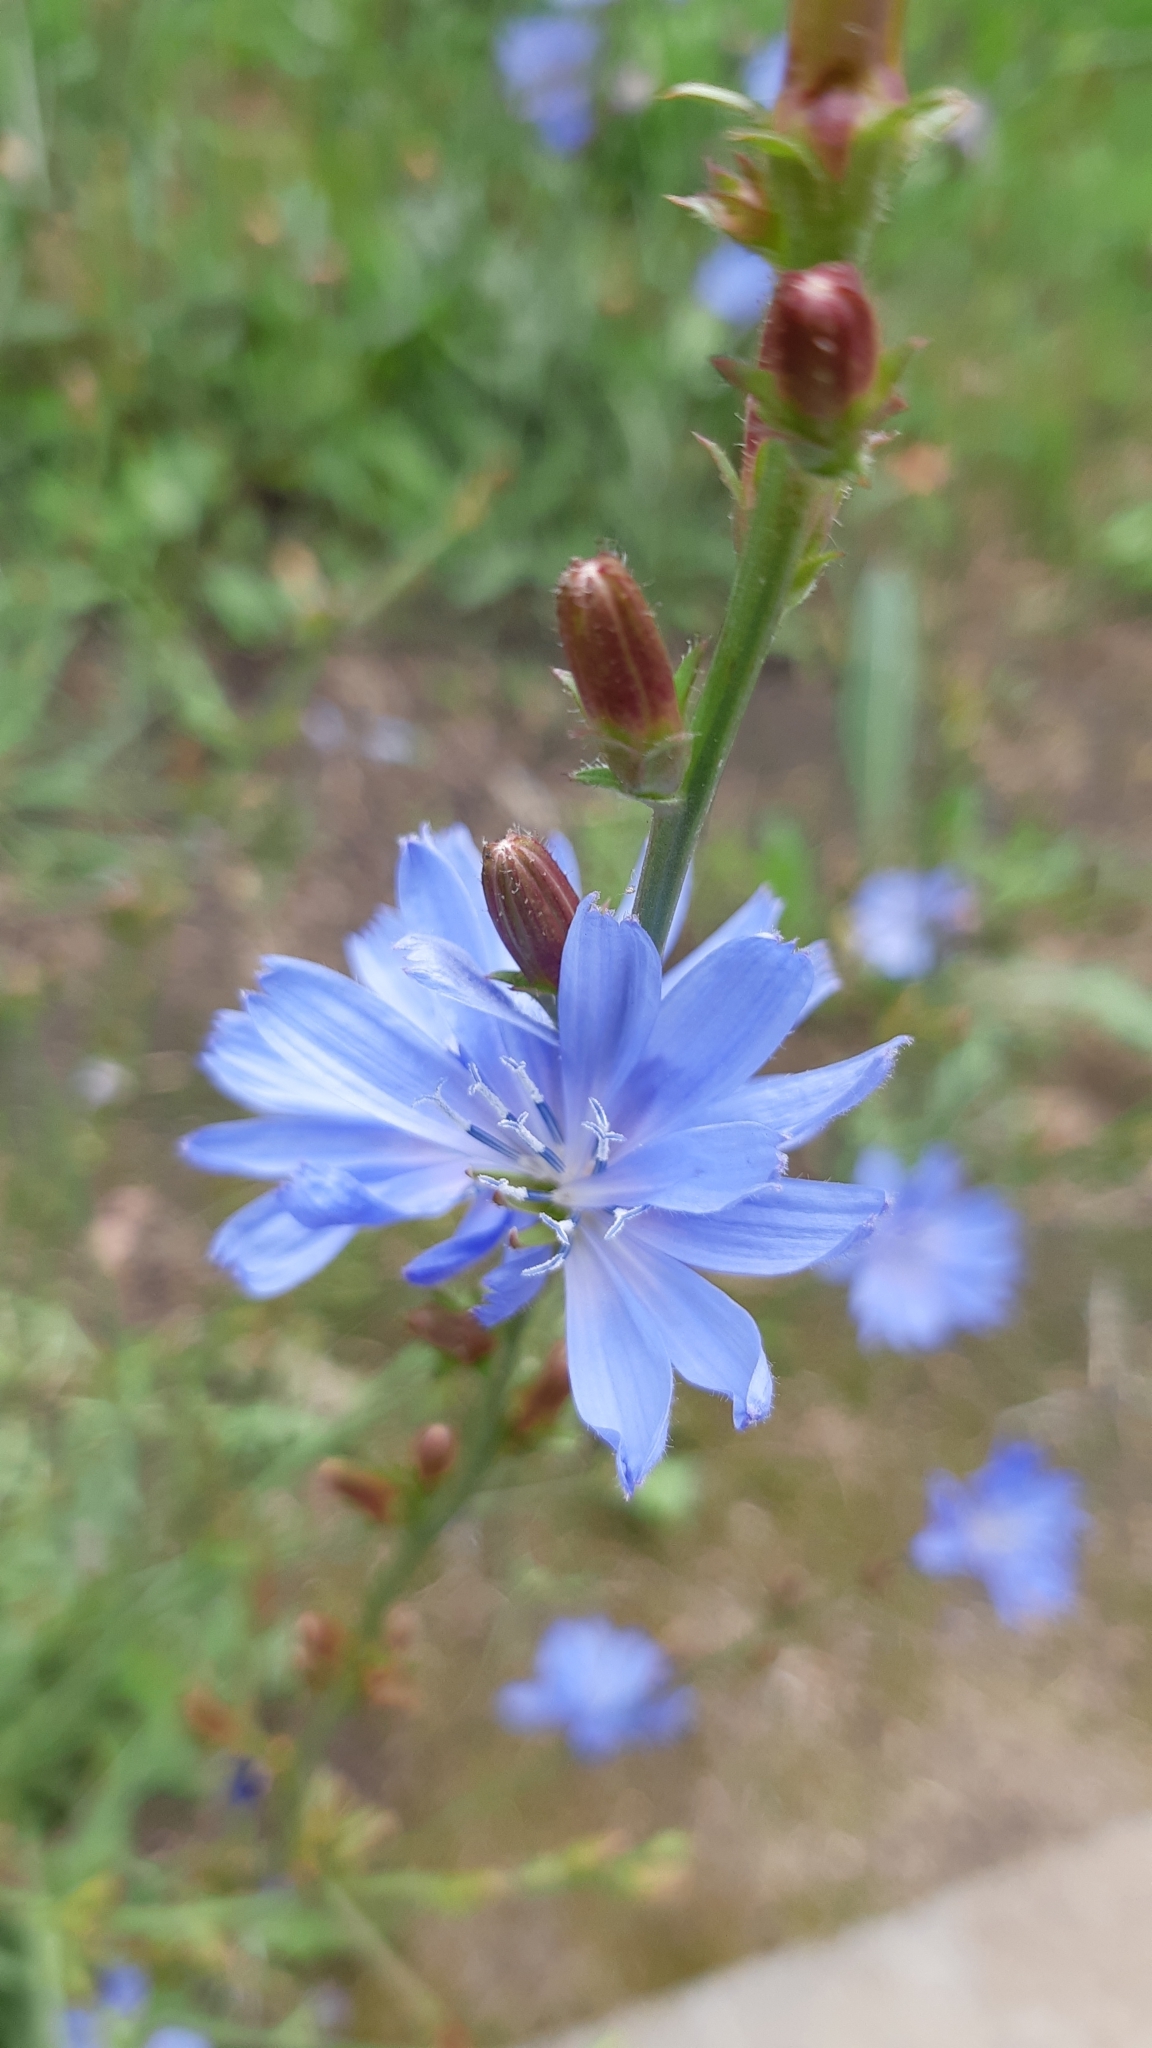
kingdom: Plantae
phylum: Tracheophyta
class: Magnoliopsida
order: Asterales
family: Asteraceae
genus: Cichorium
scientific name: Cichorium intybus
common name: Chicory
